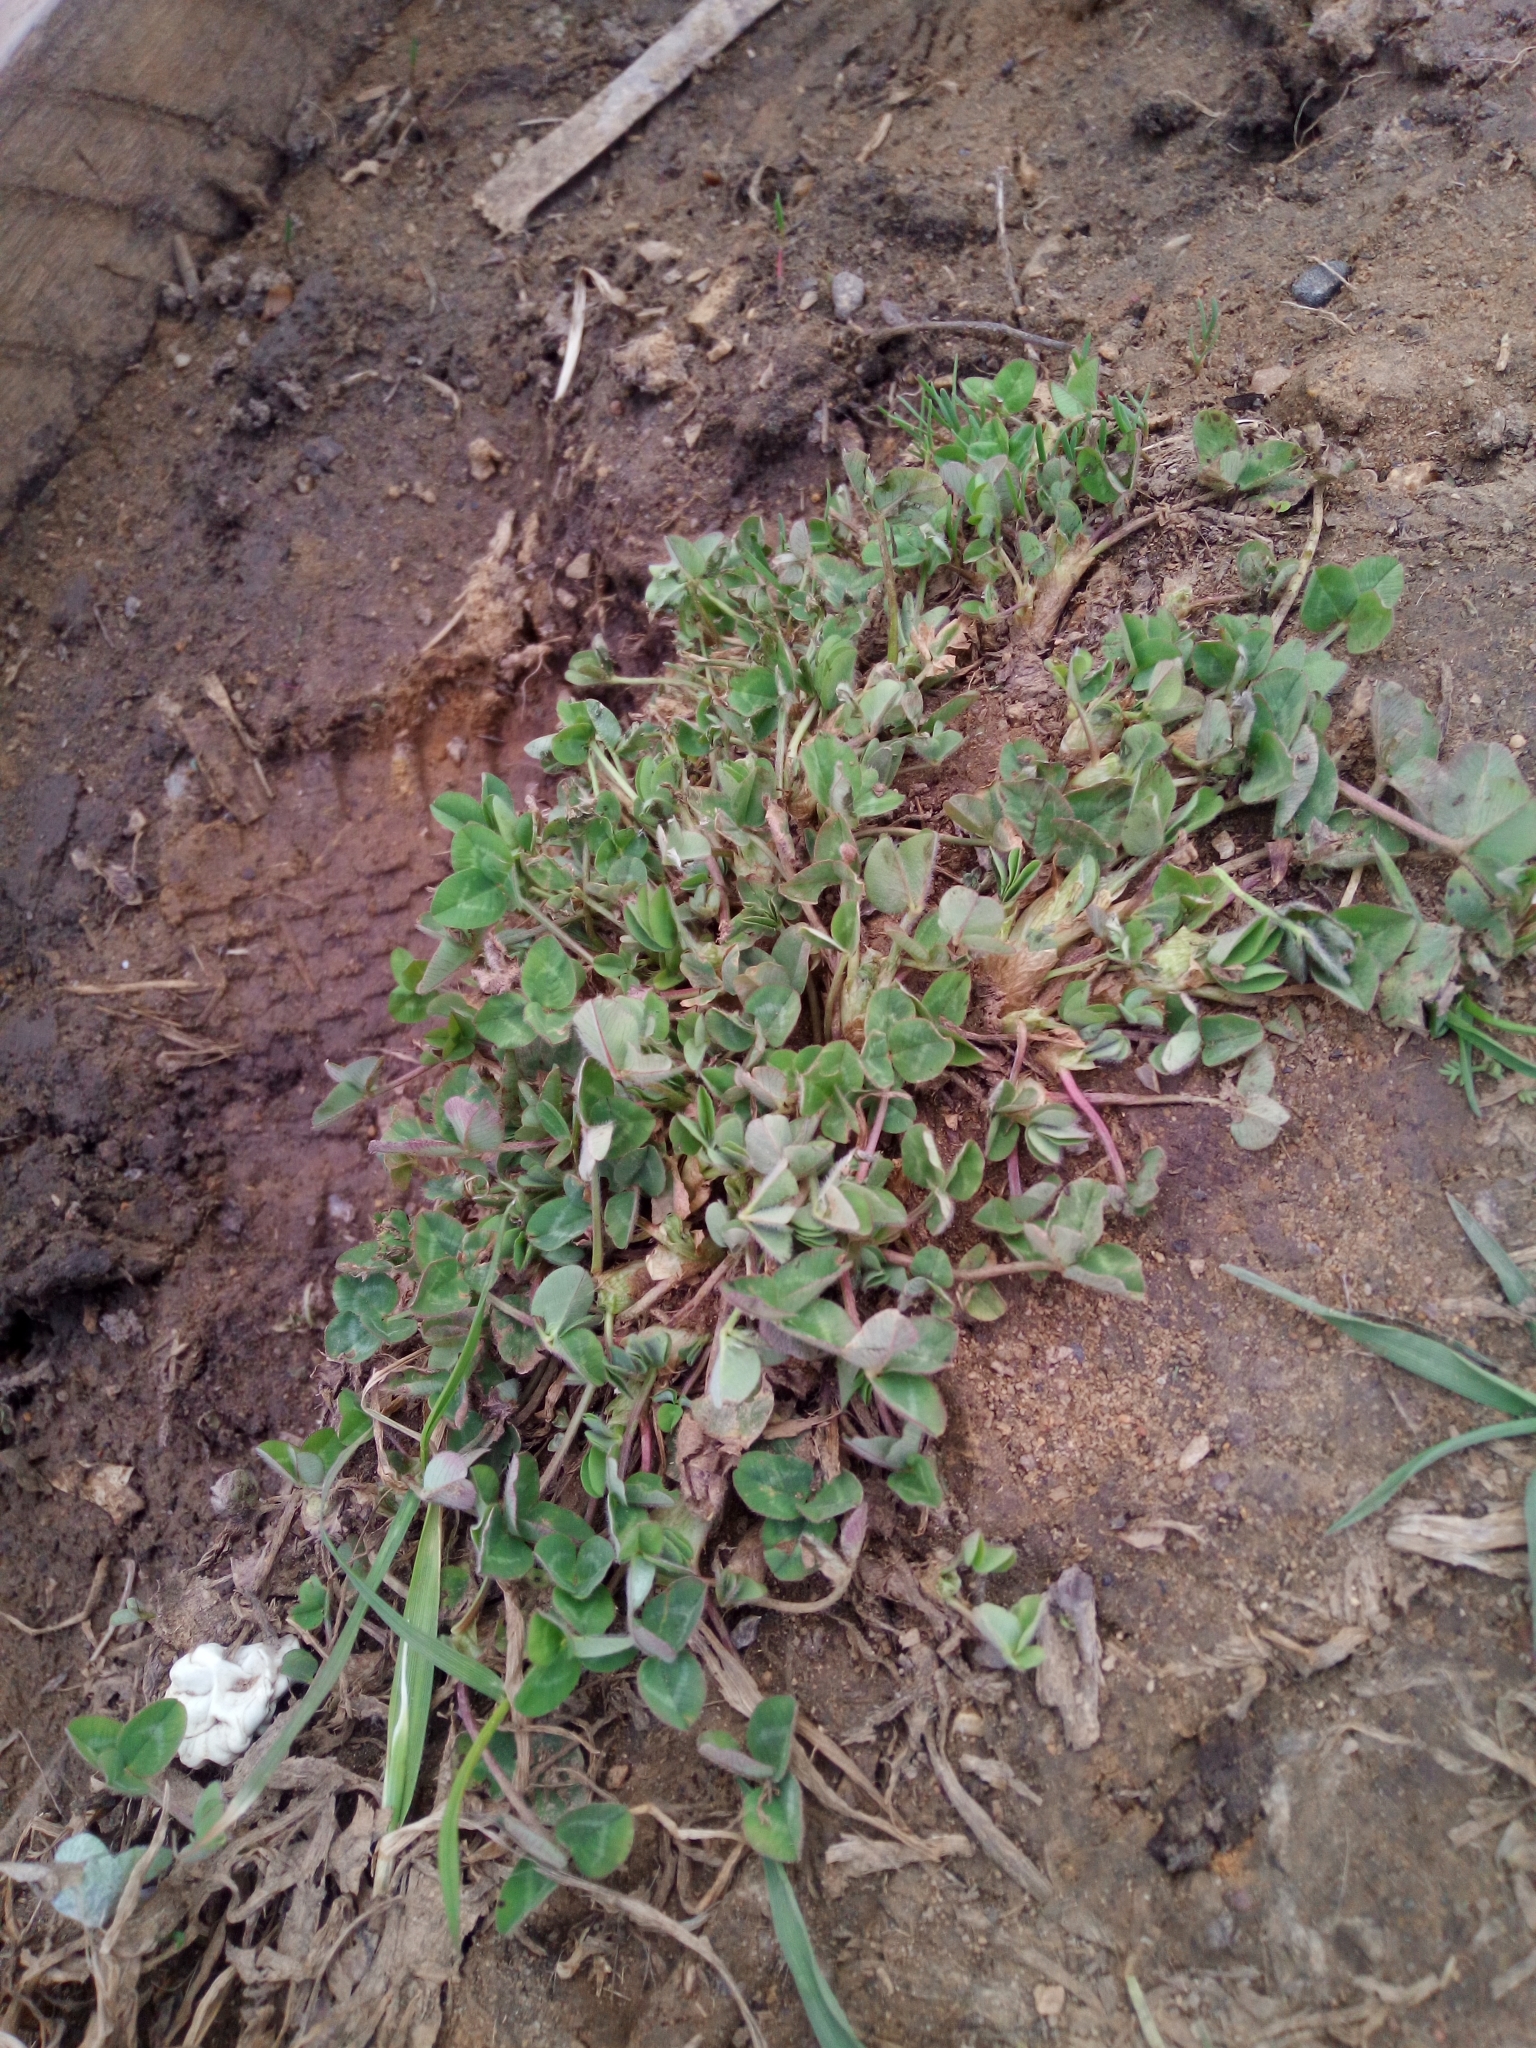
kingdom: Plantae
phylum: Tracheophyta
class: Magnoliopsida
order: Fabales
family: Fabaceae
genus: Trifolium
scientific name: Trifolium pratense
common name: Red clover
